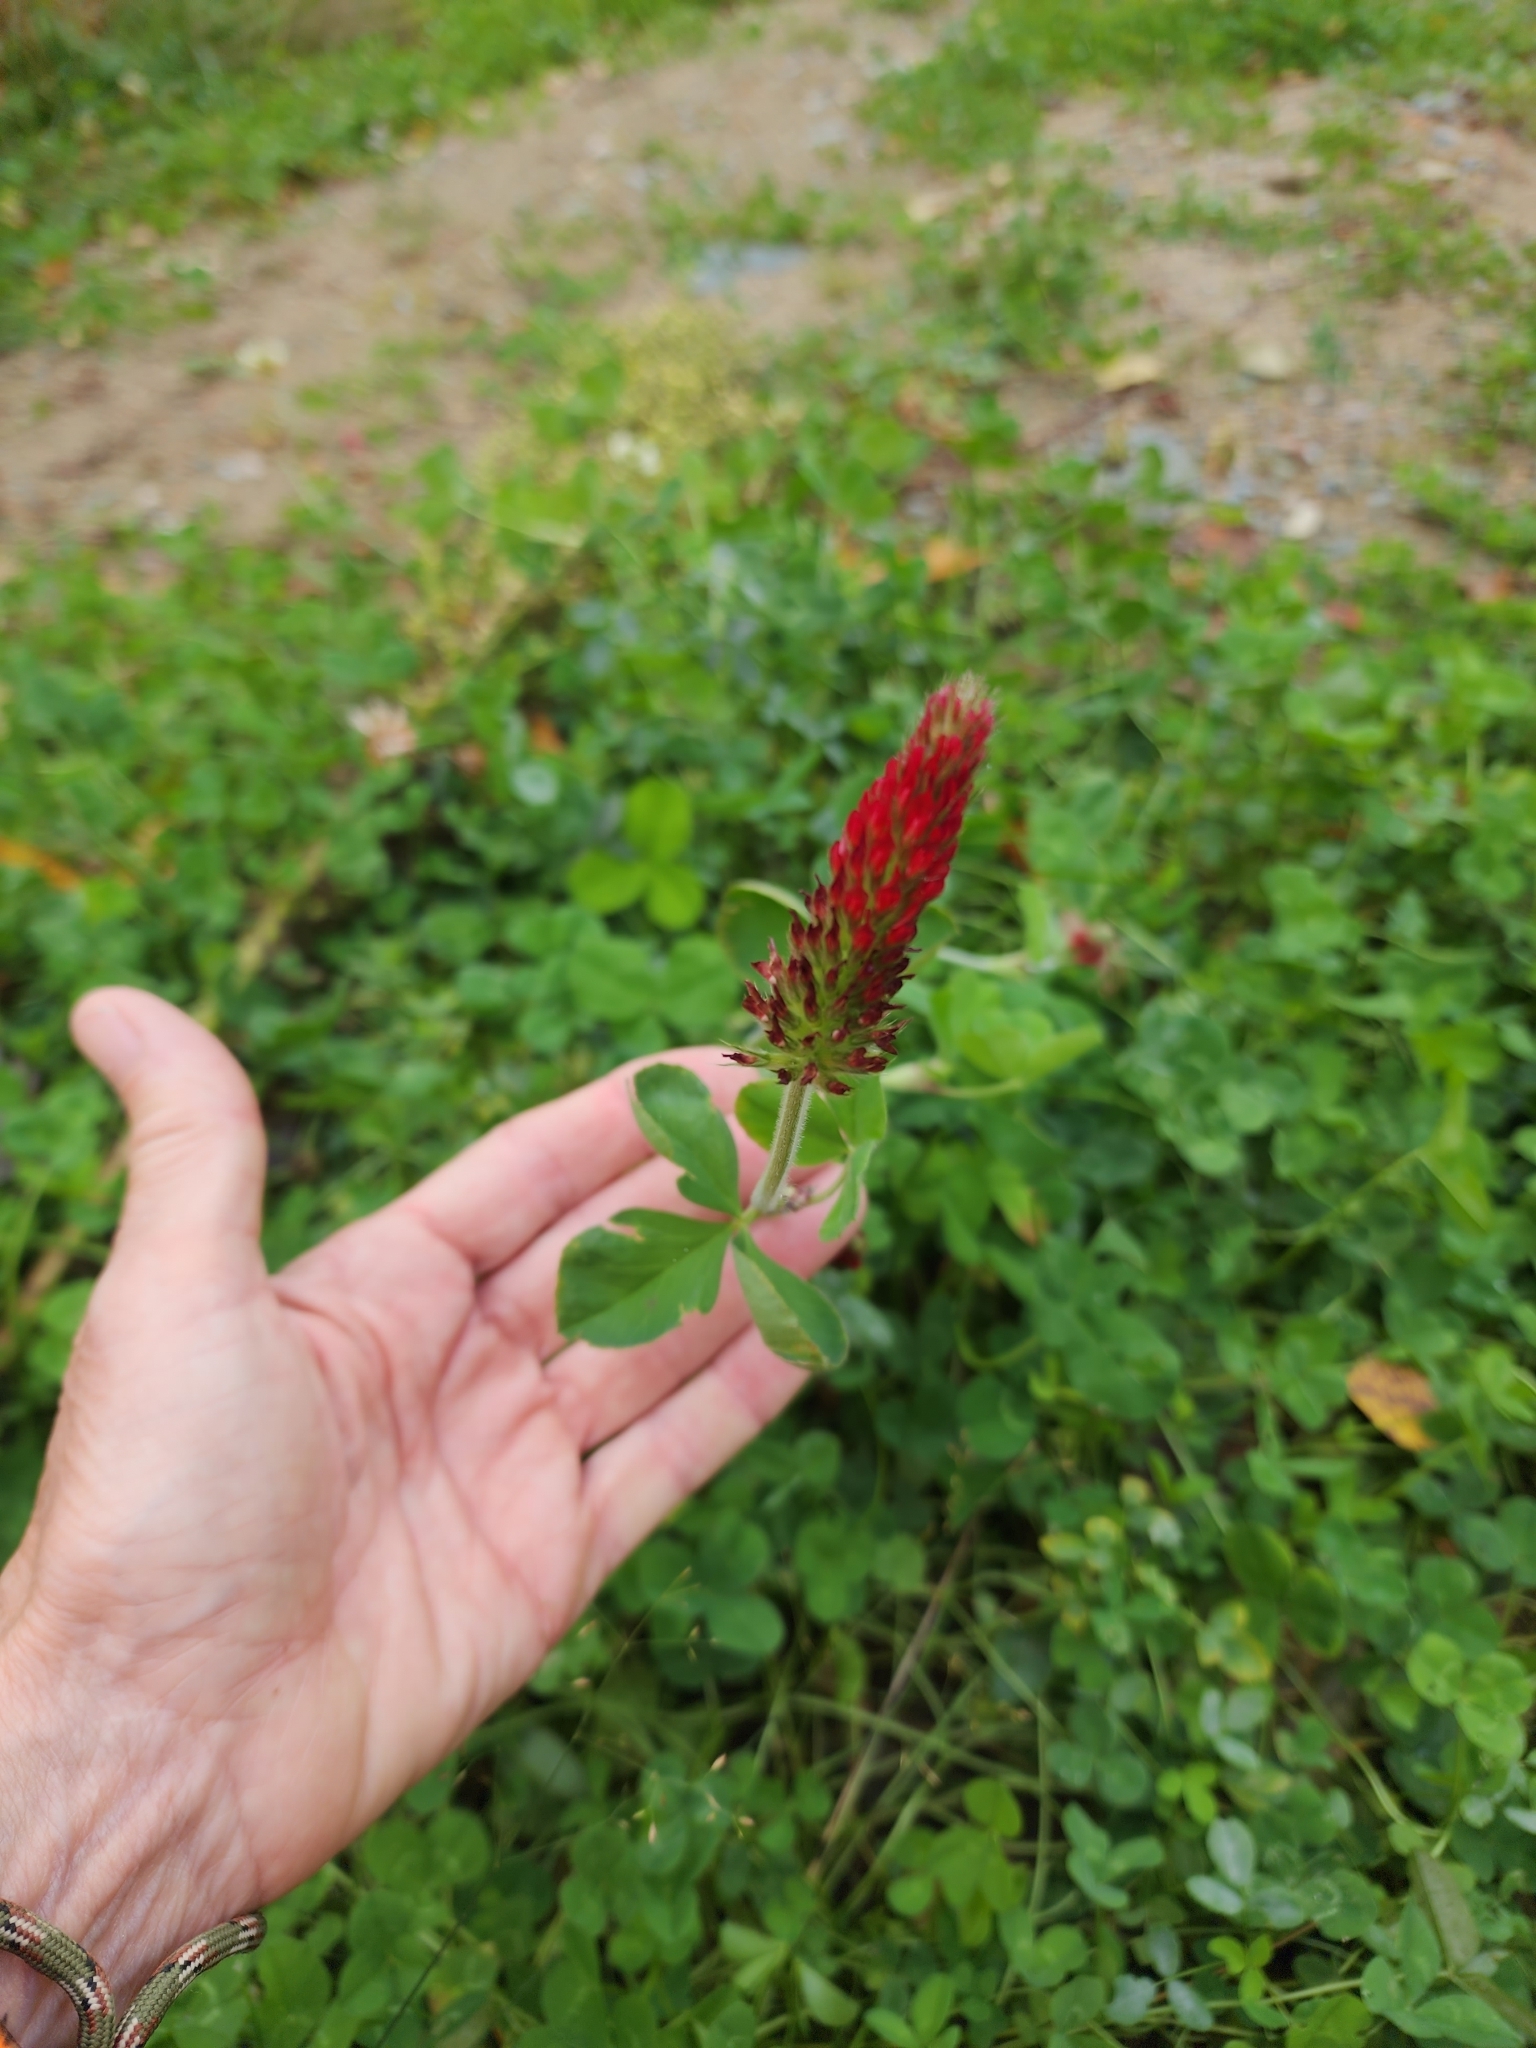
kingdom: Plantae
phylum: Tracheophyta
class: Magnoliopsida
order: Fabales
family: Fabaceae
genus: Trifolium
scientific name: Trifolium incarnatum
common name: Crimson clover
